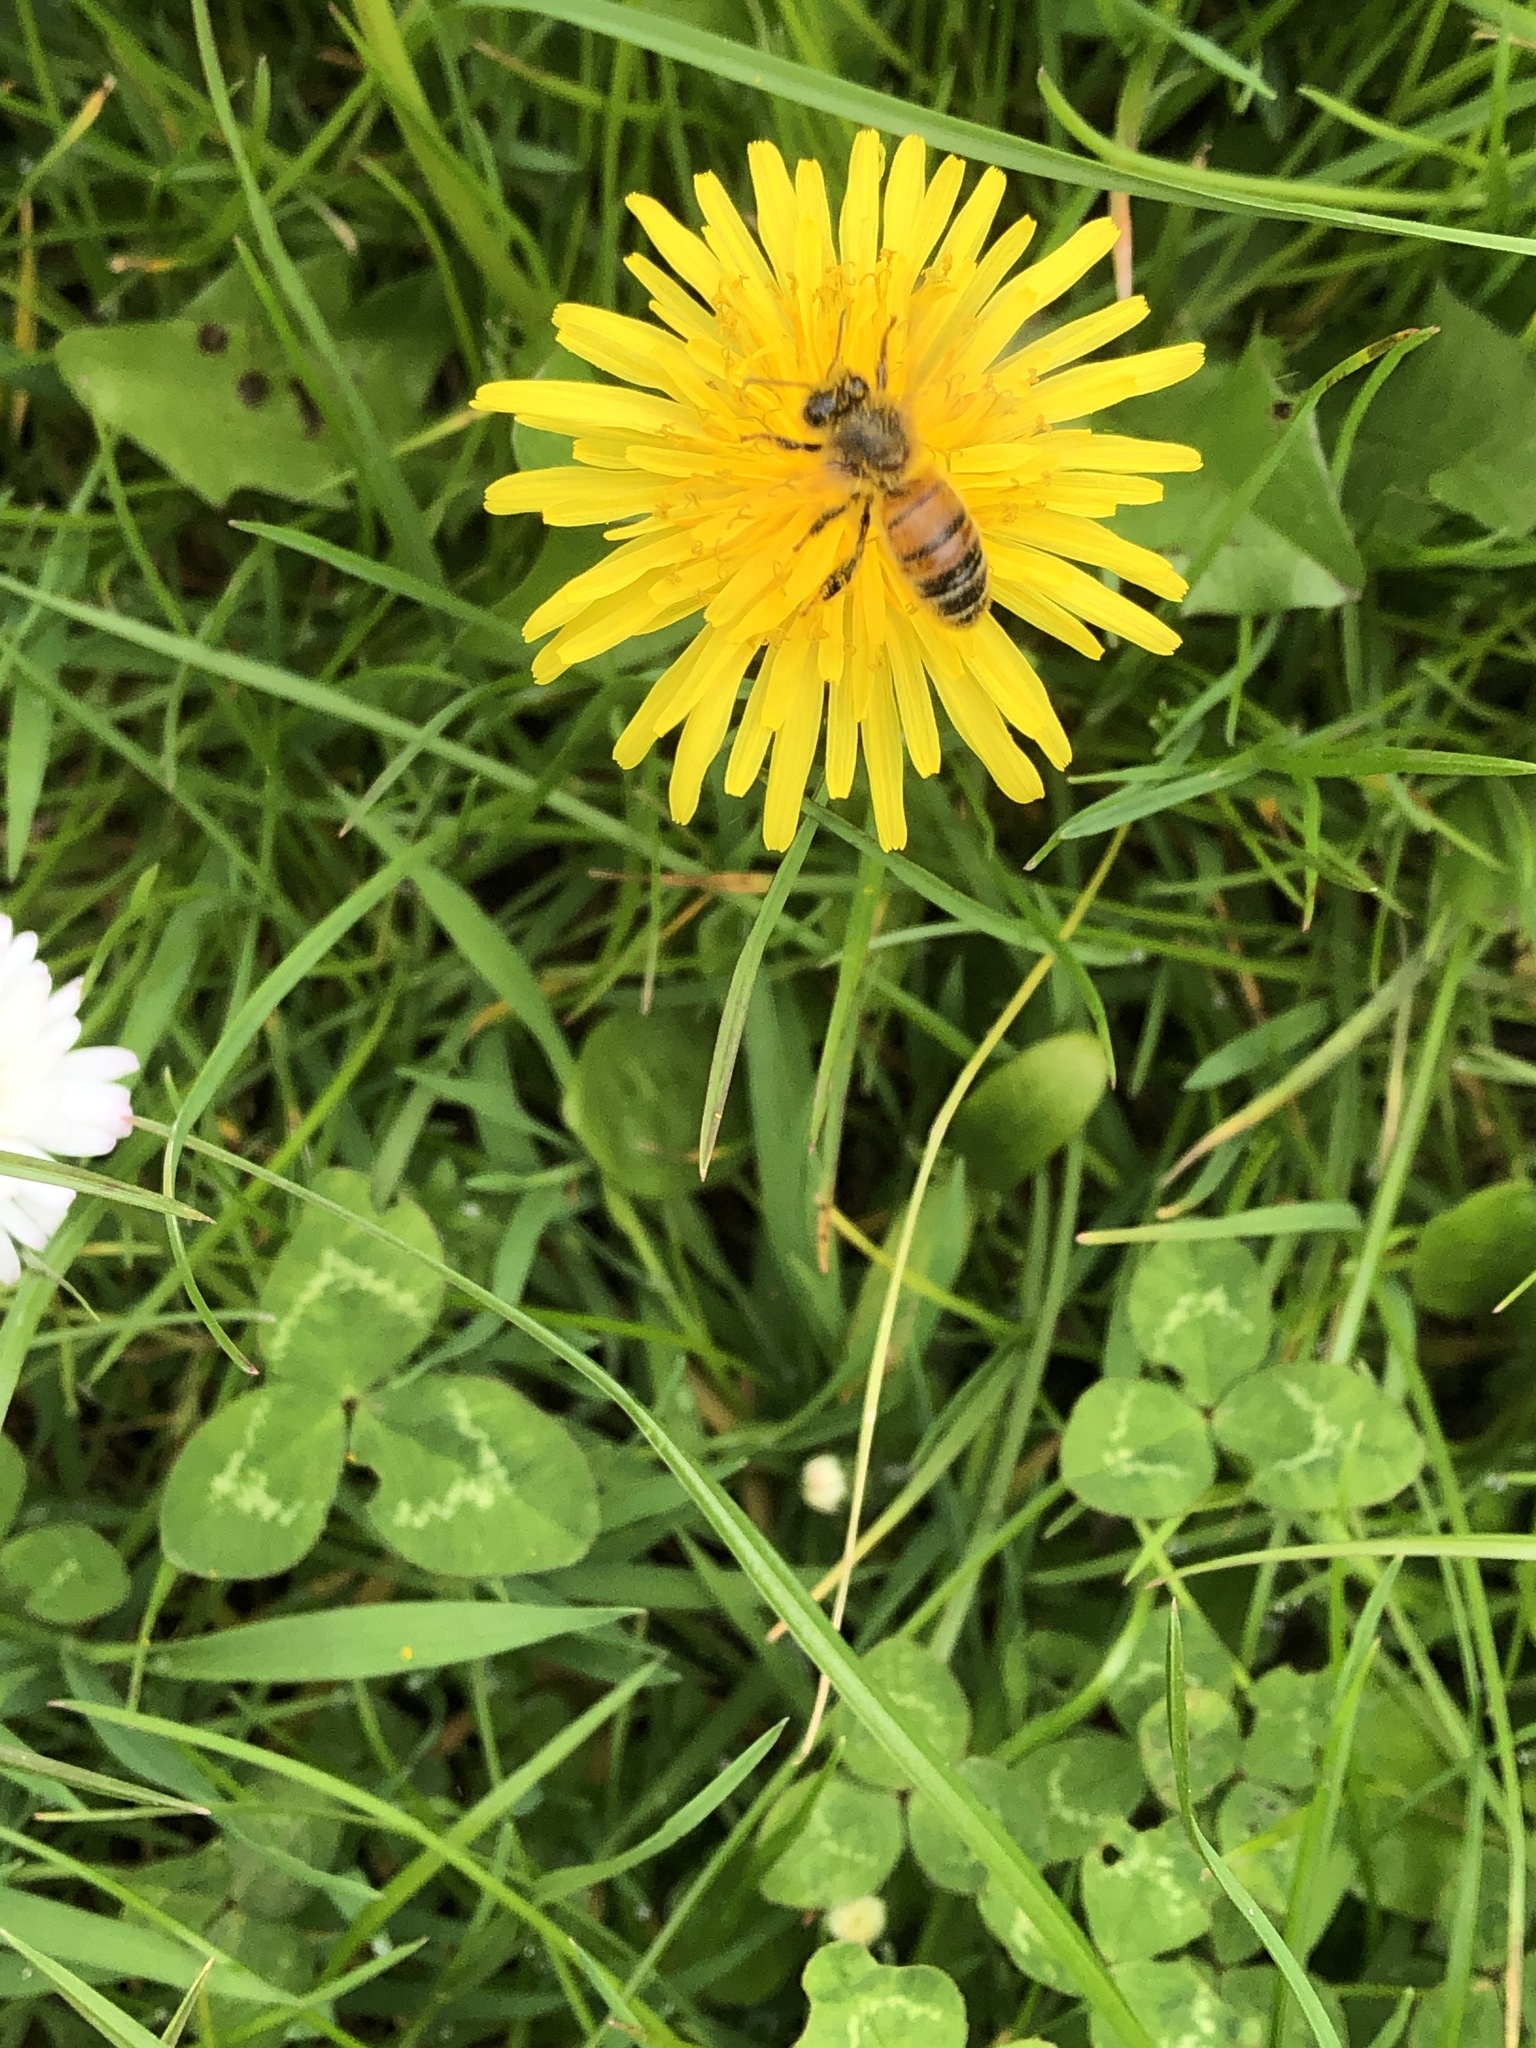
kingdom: Animalia
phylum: Arthropoda
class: Insecta
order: Hymenoptera
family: Apidae
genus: Apis
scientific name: Apis mellifera
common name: Honey bee
